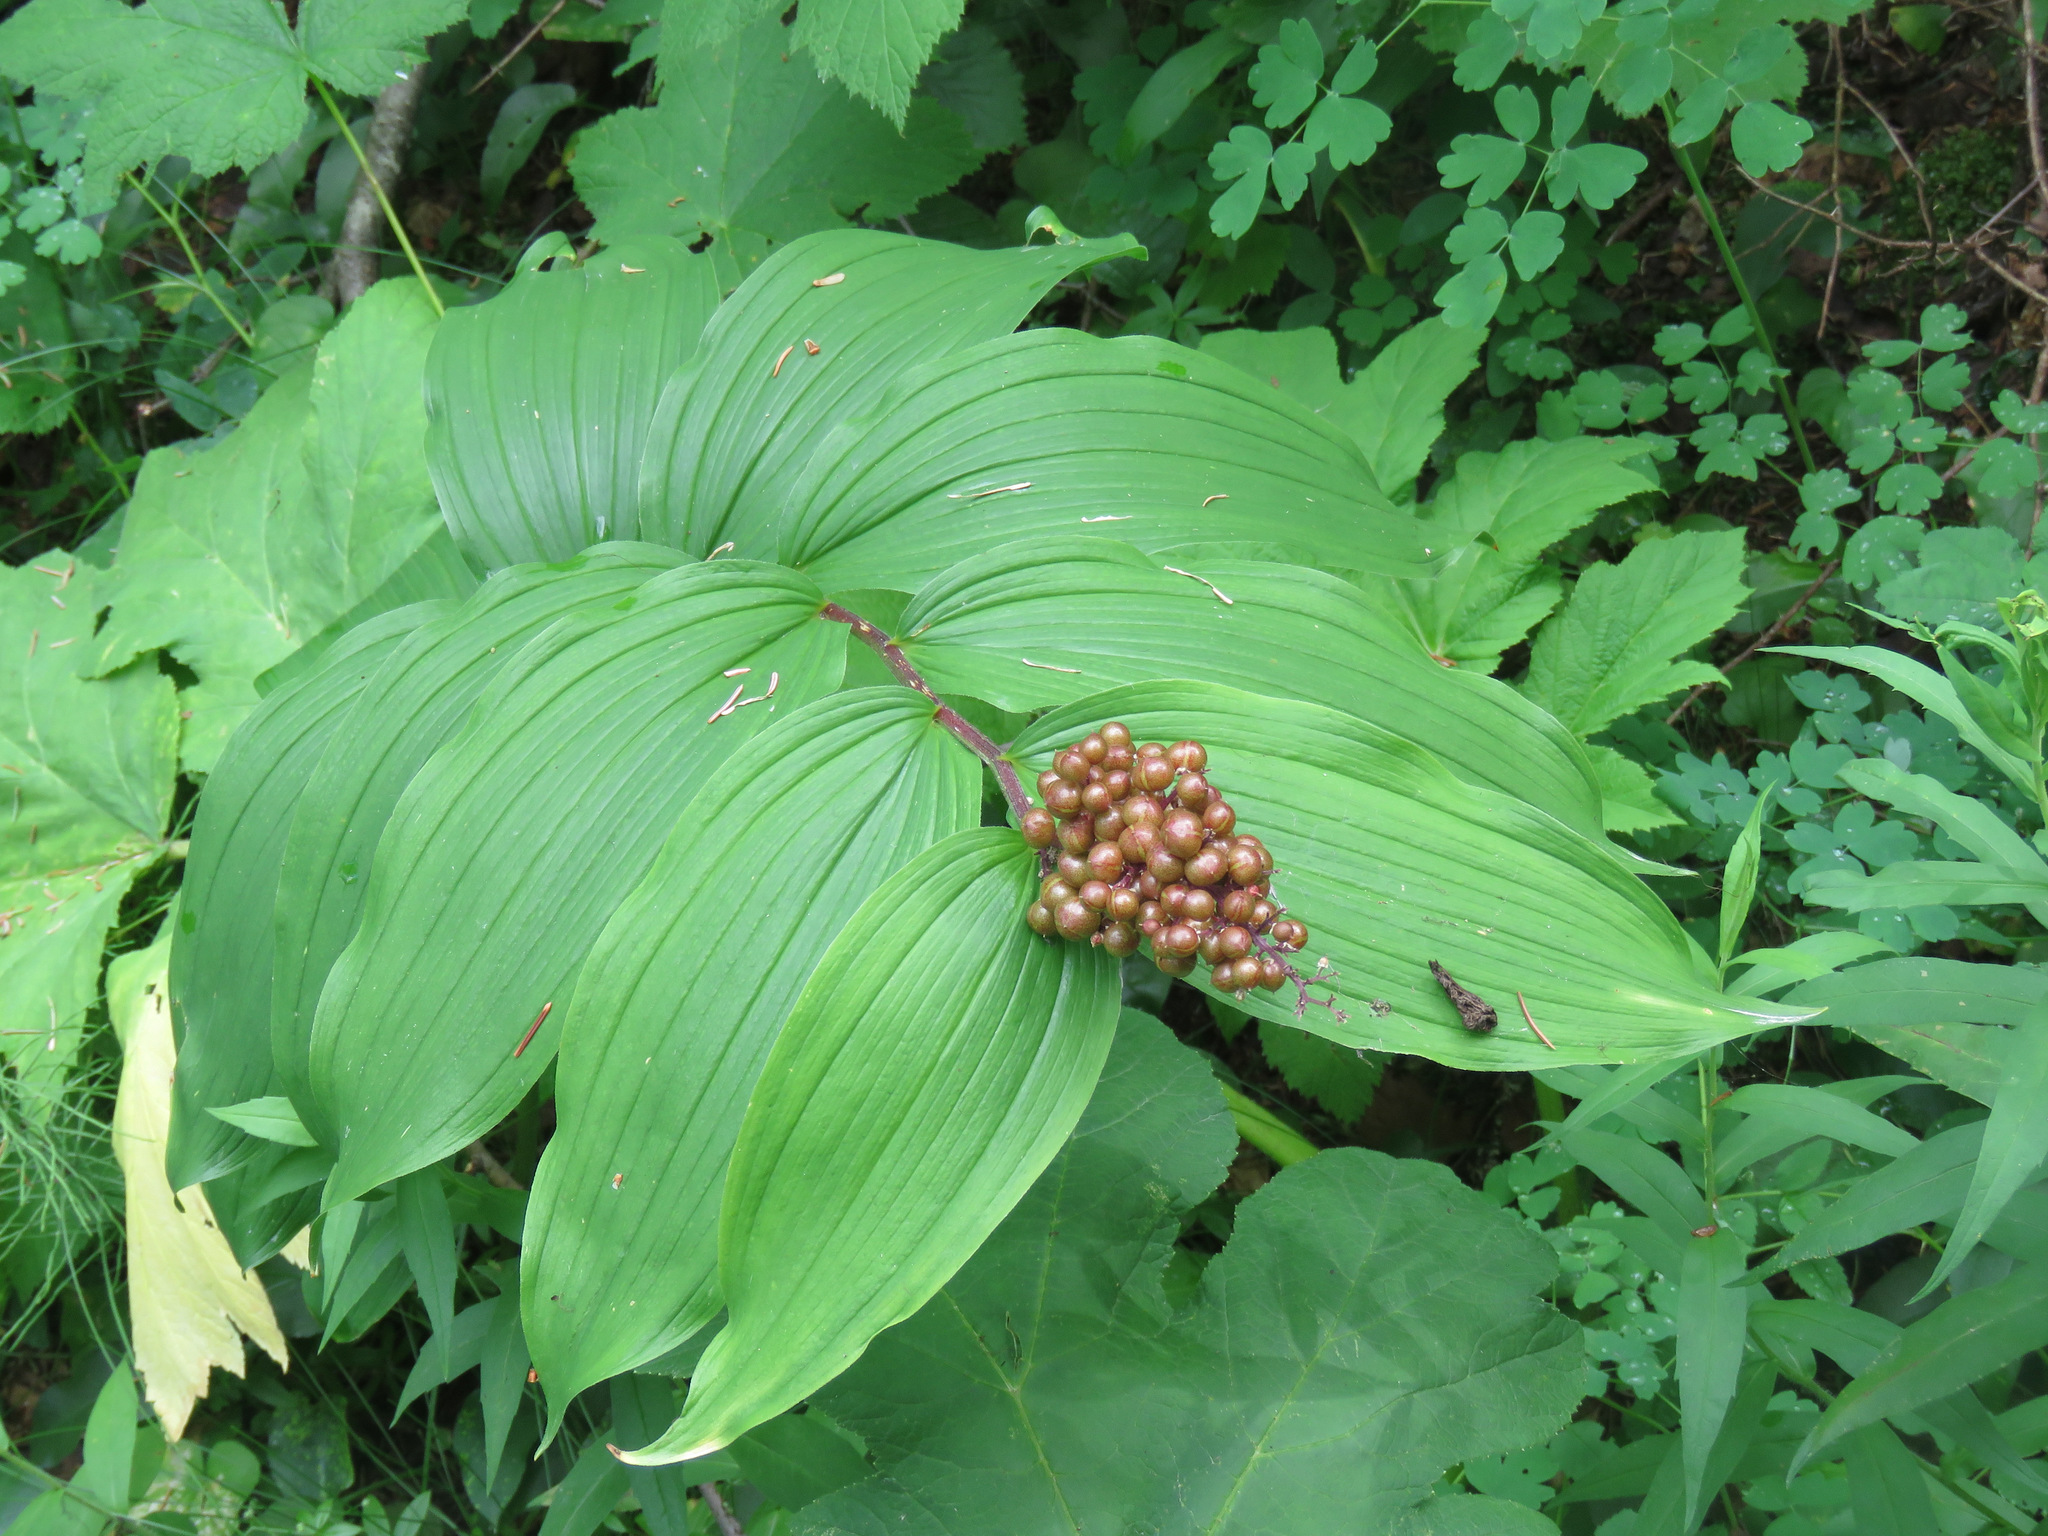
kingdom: Plantae
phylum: Tracheophyta
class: Liliopsida
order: Asparagales
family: Asparagaceae
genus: Maianthemum
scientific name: Maianthemum racemosum
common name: False spikenard
